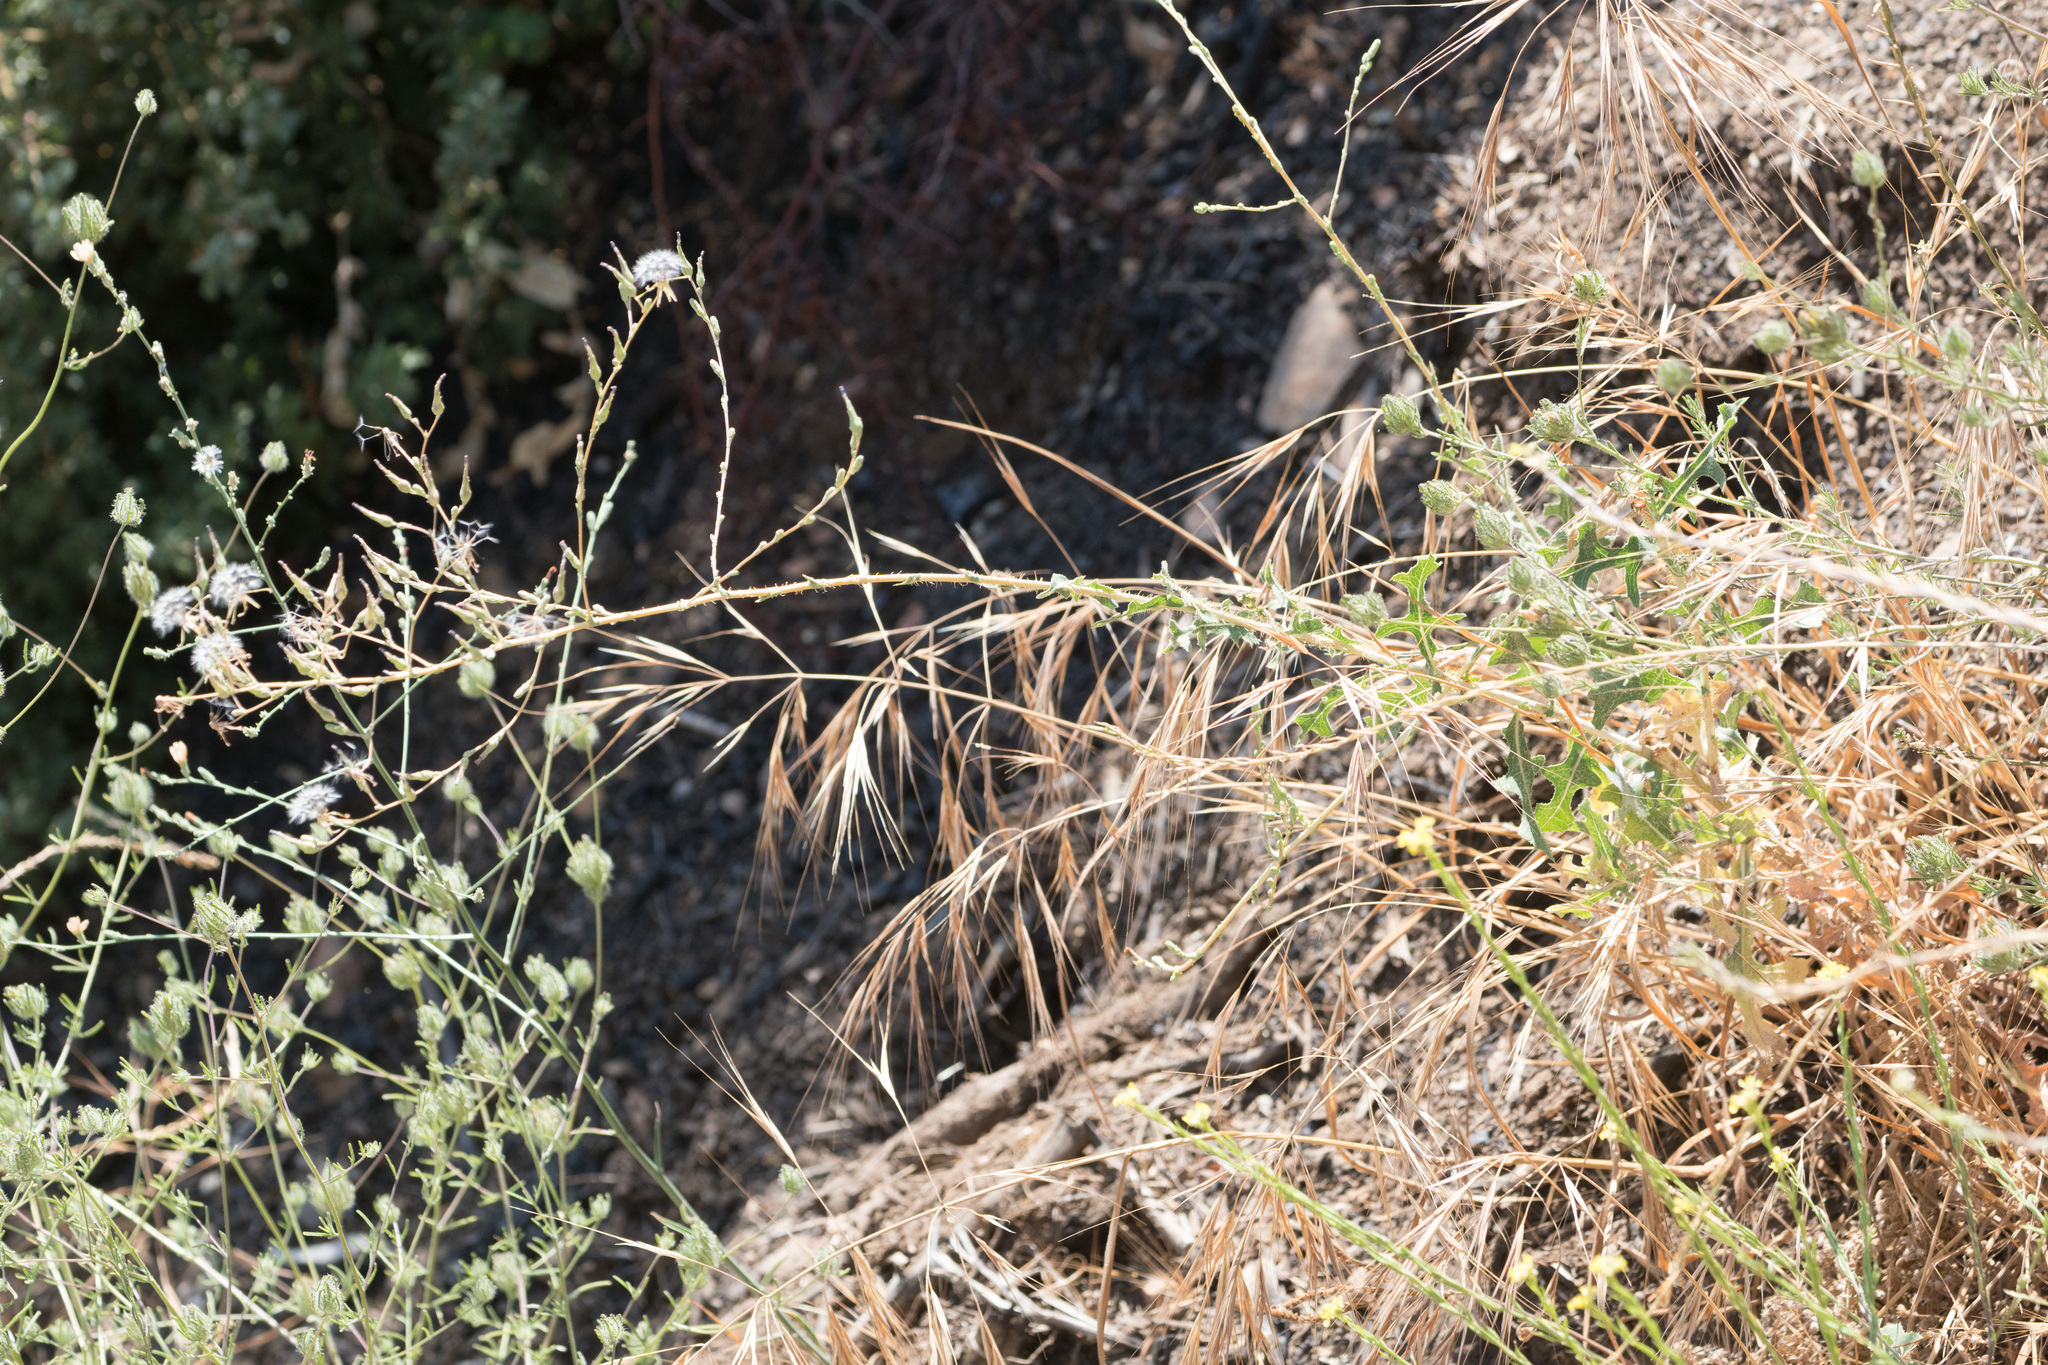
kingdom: Plantae
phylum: Tracheophyta
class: Magnoliopsida
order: Asterales
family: Asteraceae
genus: Lactuca
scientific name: Lactuca serriola
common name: Prickly lettuce
